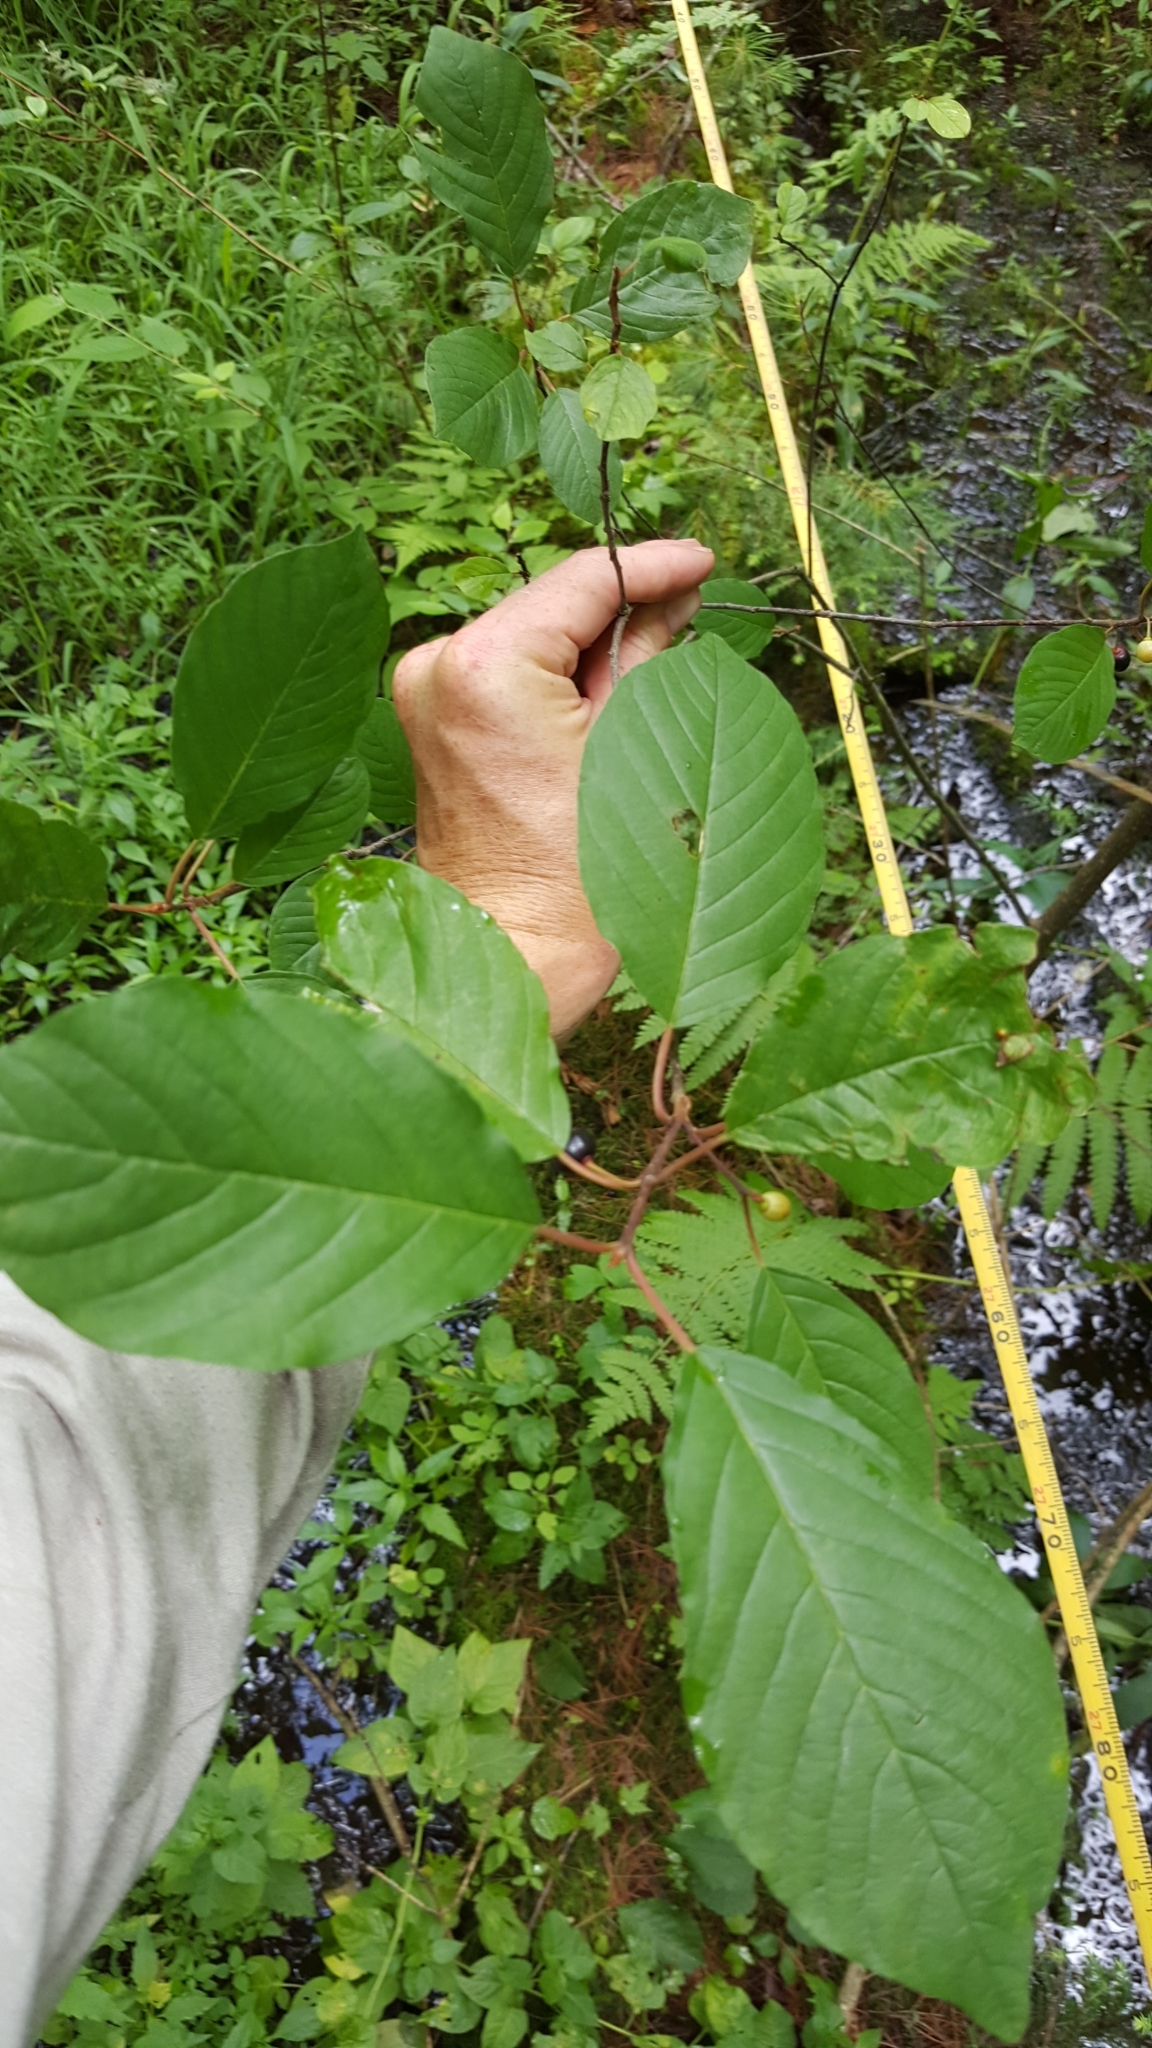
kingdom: Plantae
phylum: Tracheophyta
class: Magnoliopsida
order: Rosales
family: Rhamnaceae
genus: Frangula
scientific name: Frangula alnus
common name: Alder buckthorn
